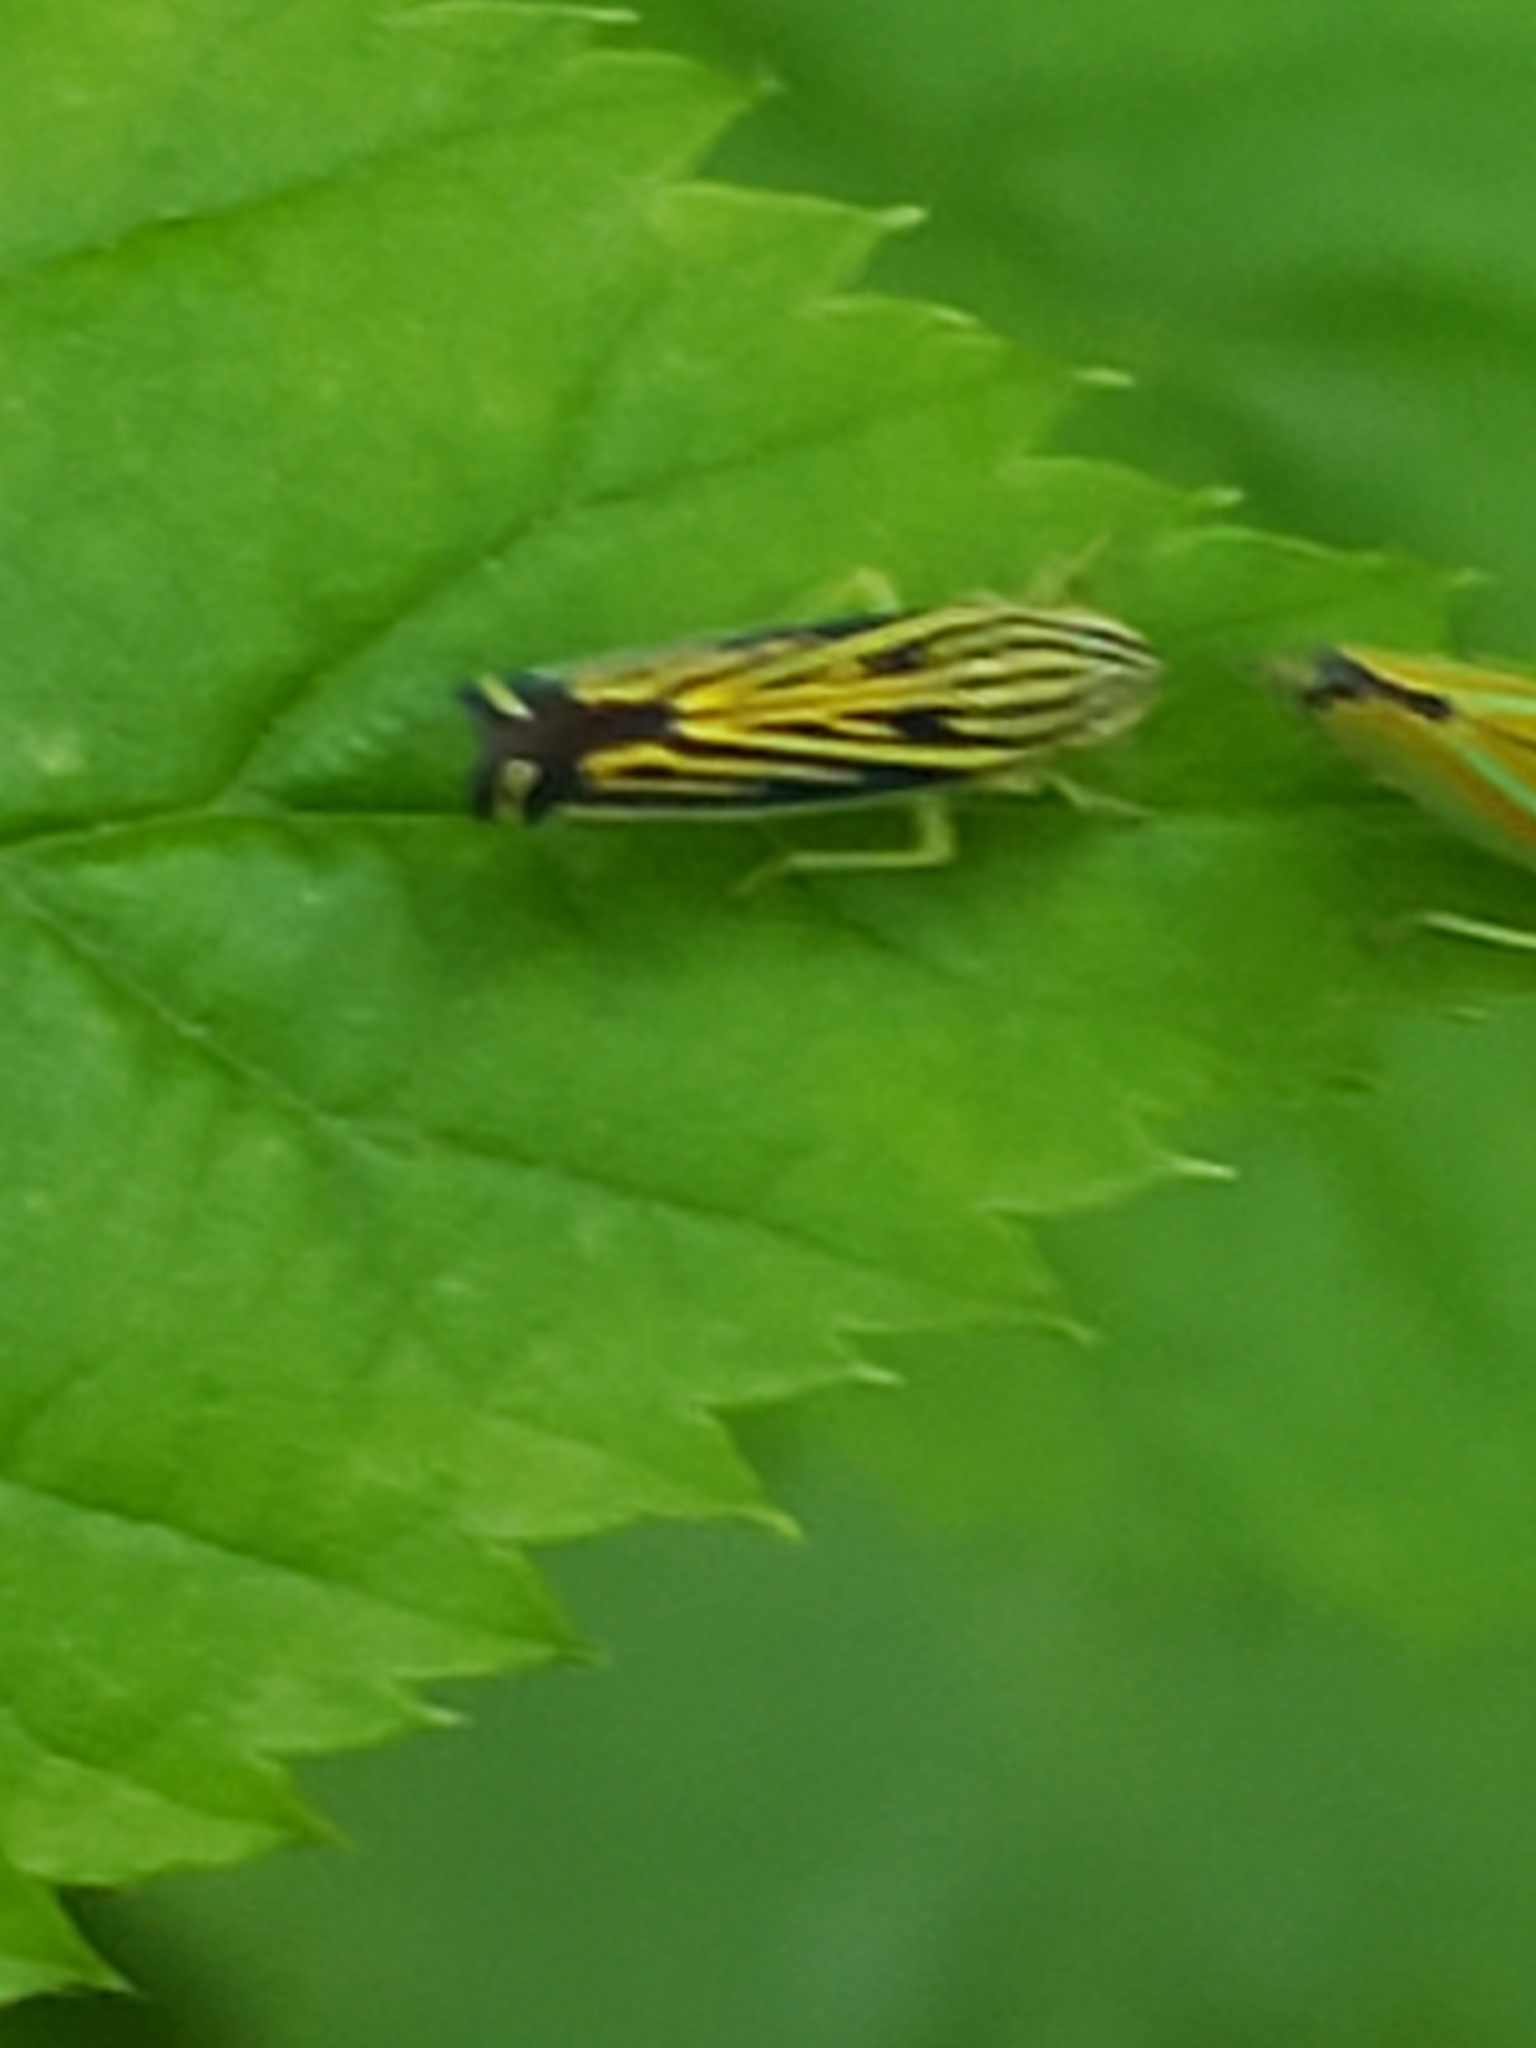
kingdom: Animalia
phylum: Arthropoda
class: Insecta
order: Hemiptera
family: Cicadellidae
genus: Sibovia
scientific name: Sibovia occatoria
